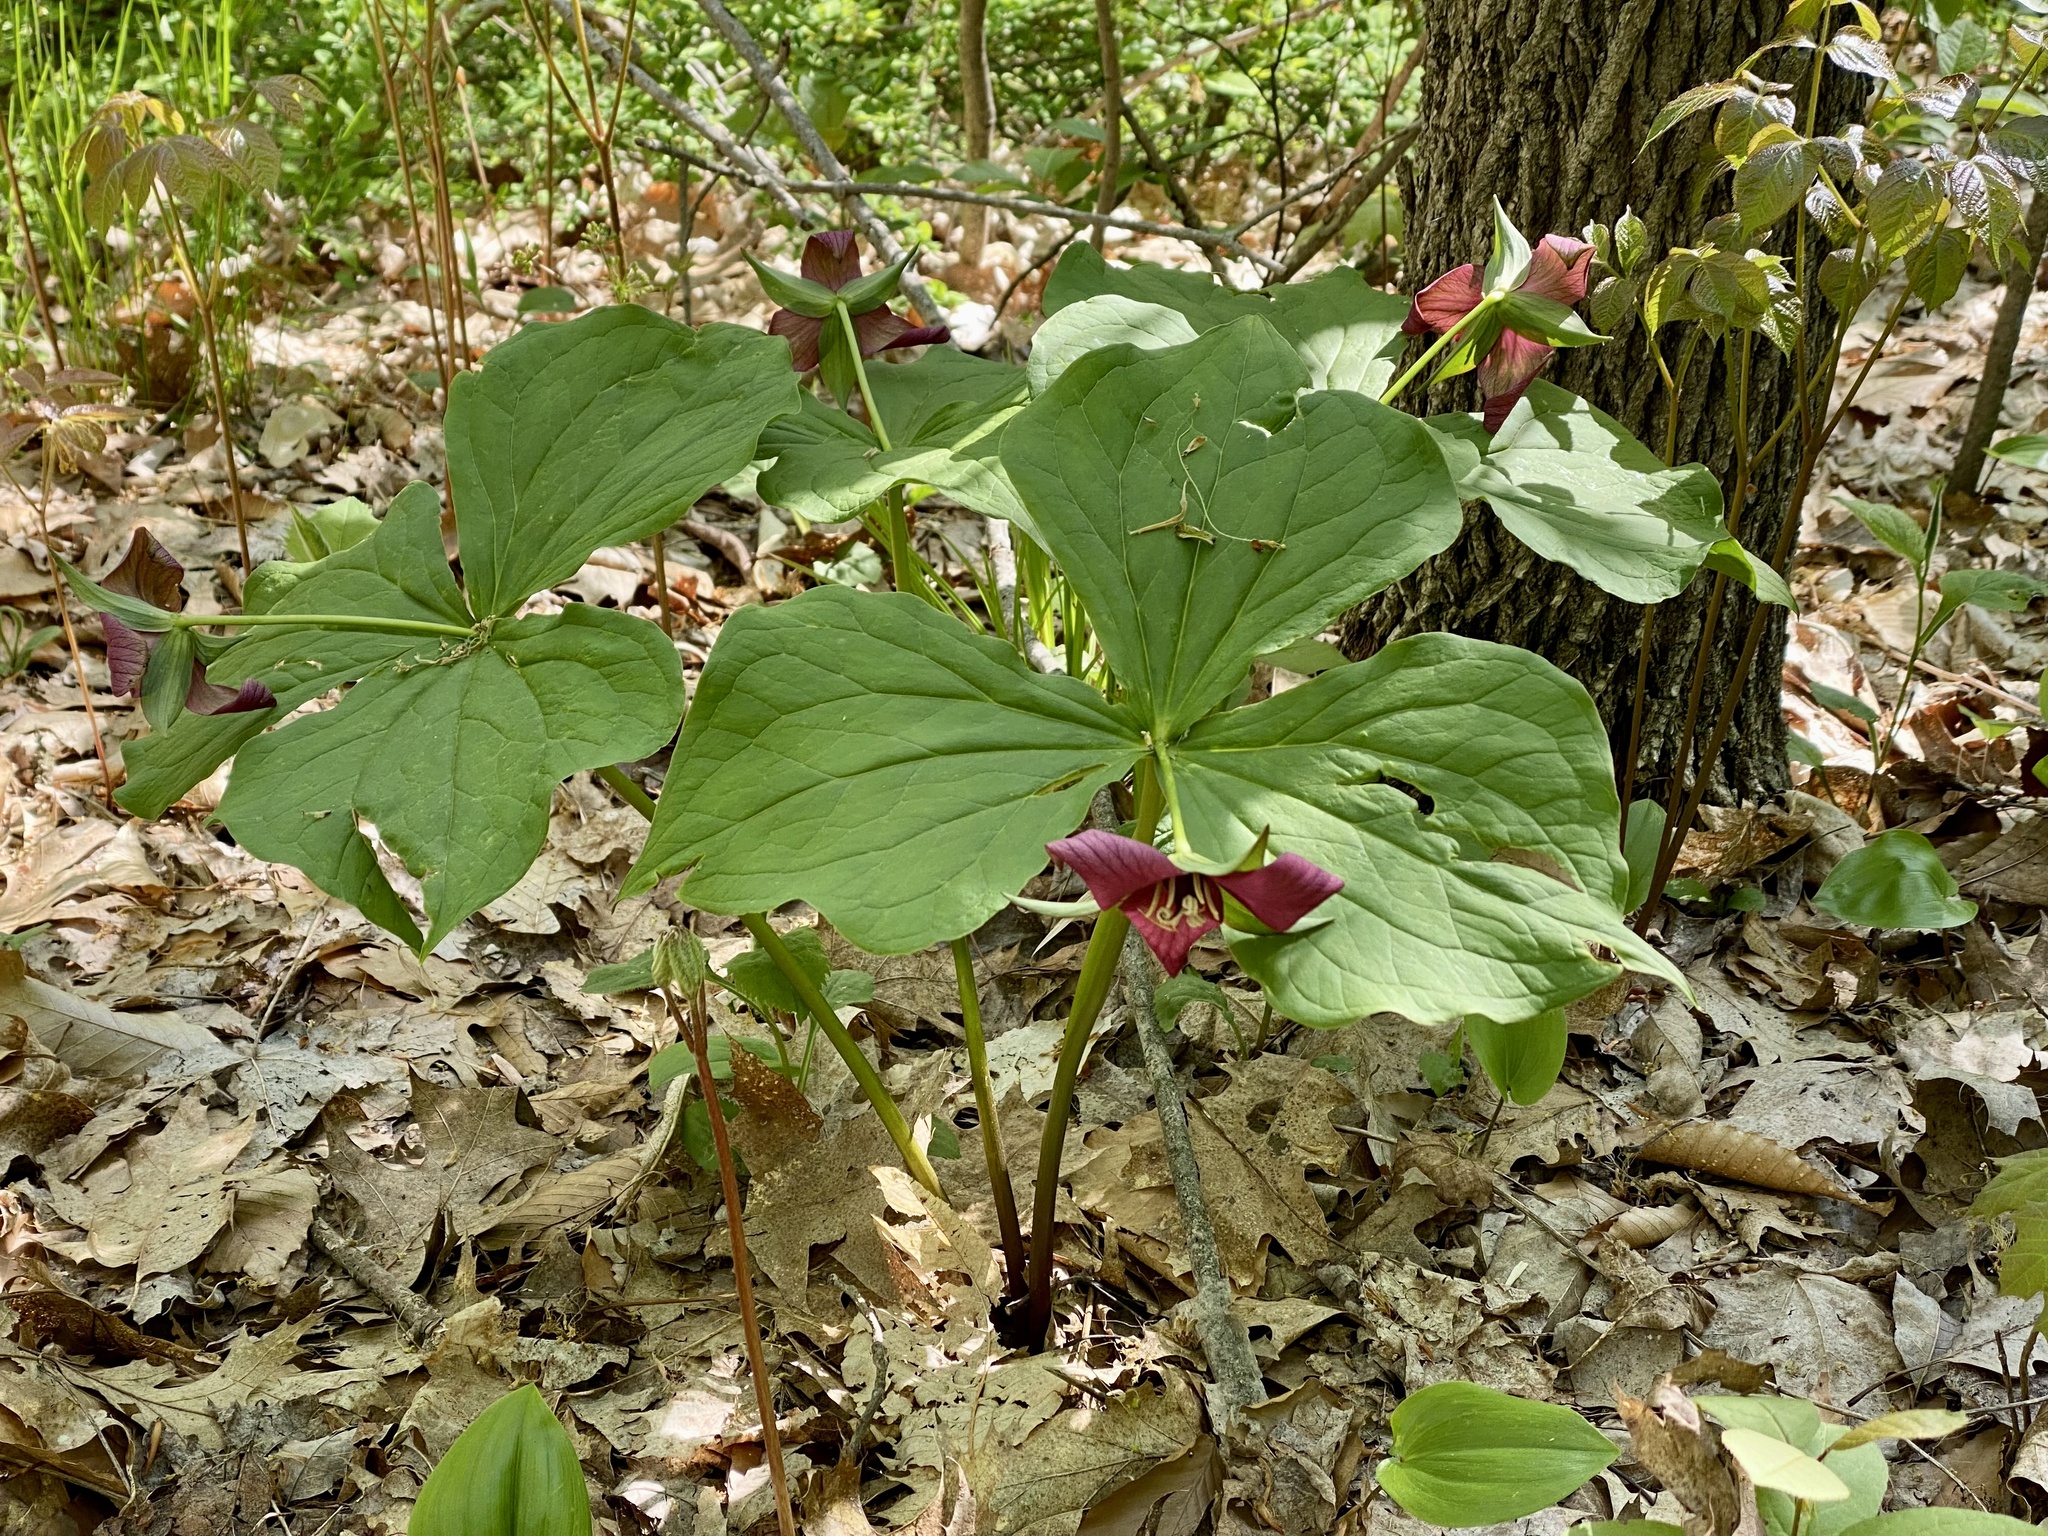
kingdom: Plantae
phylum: Tracheophyta
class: Liliopsida
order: Liliales
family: Melanthiaceae
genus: Trillium
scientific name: Trillium erectum
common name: Purple trillium
